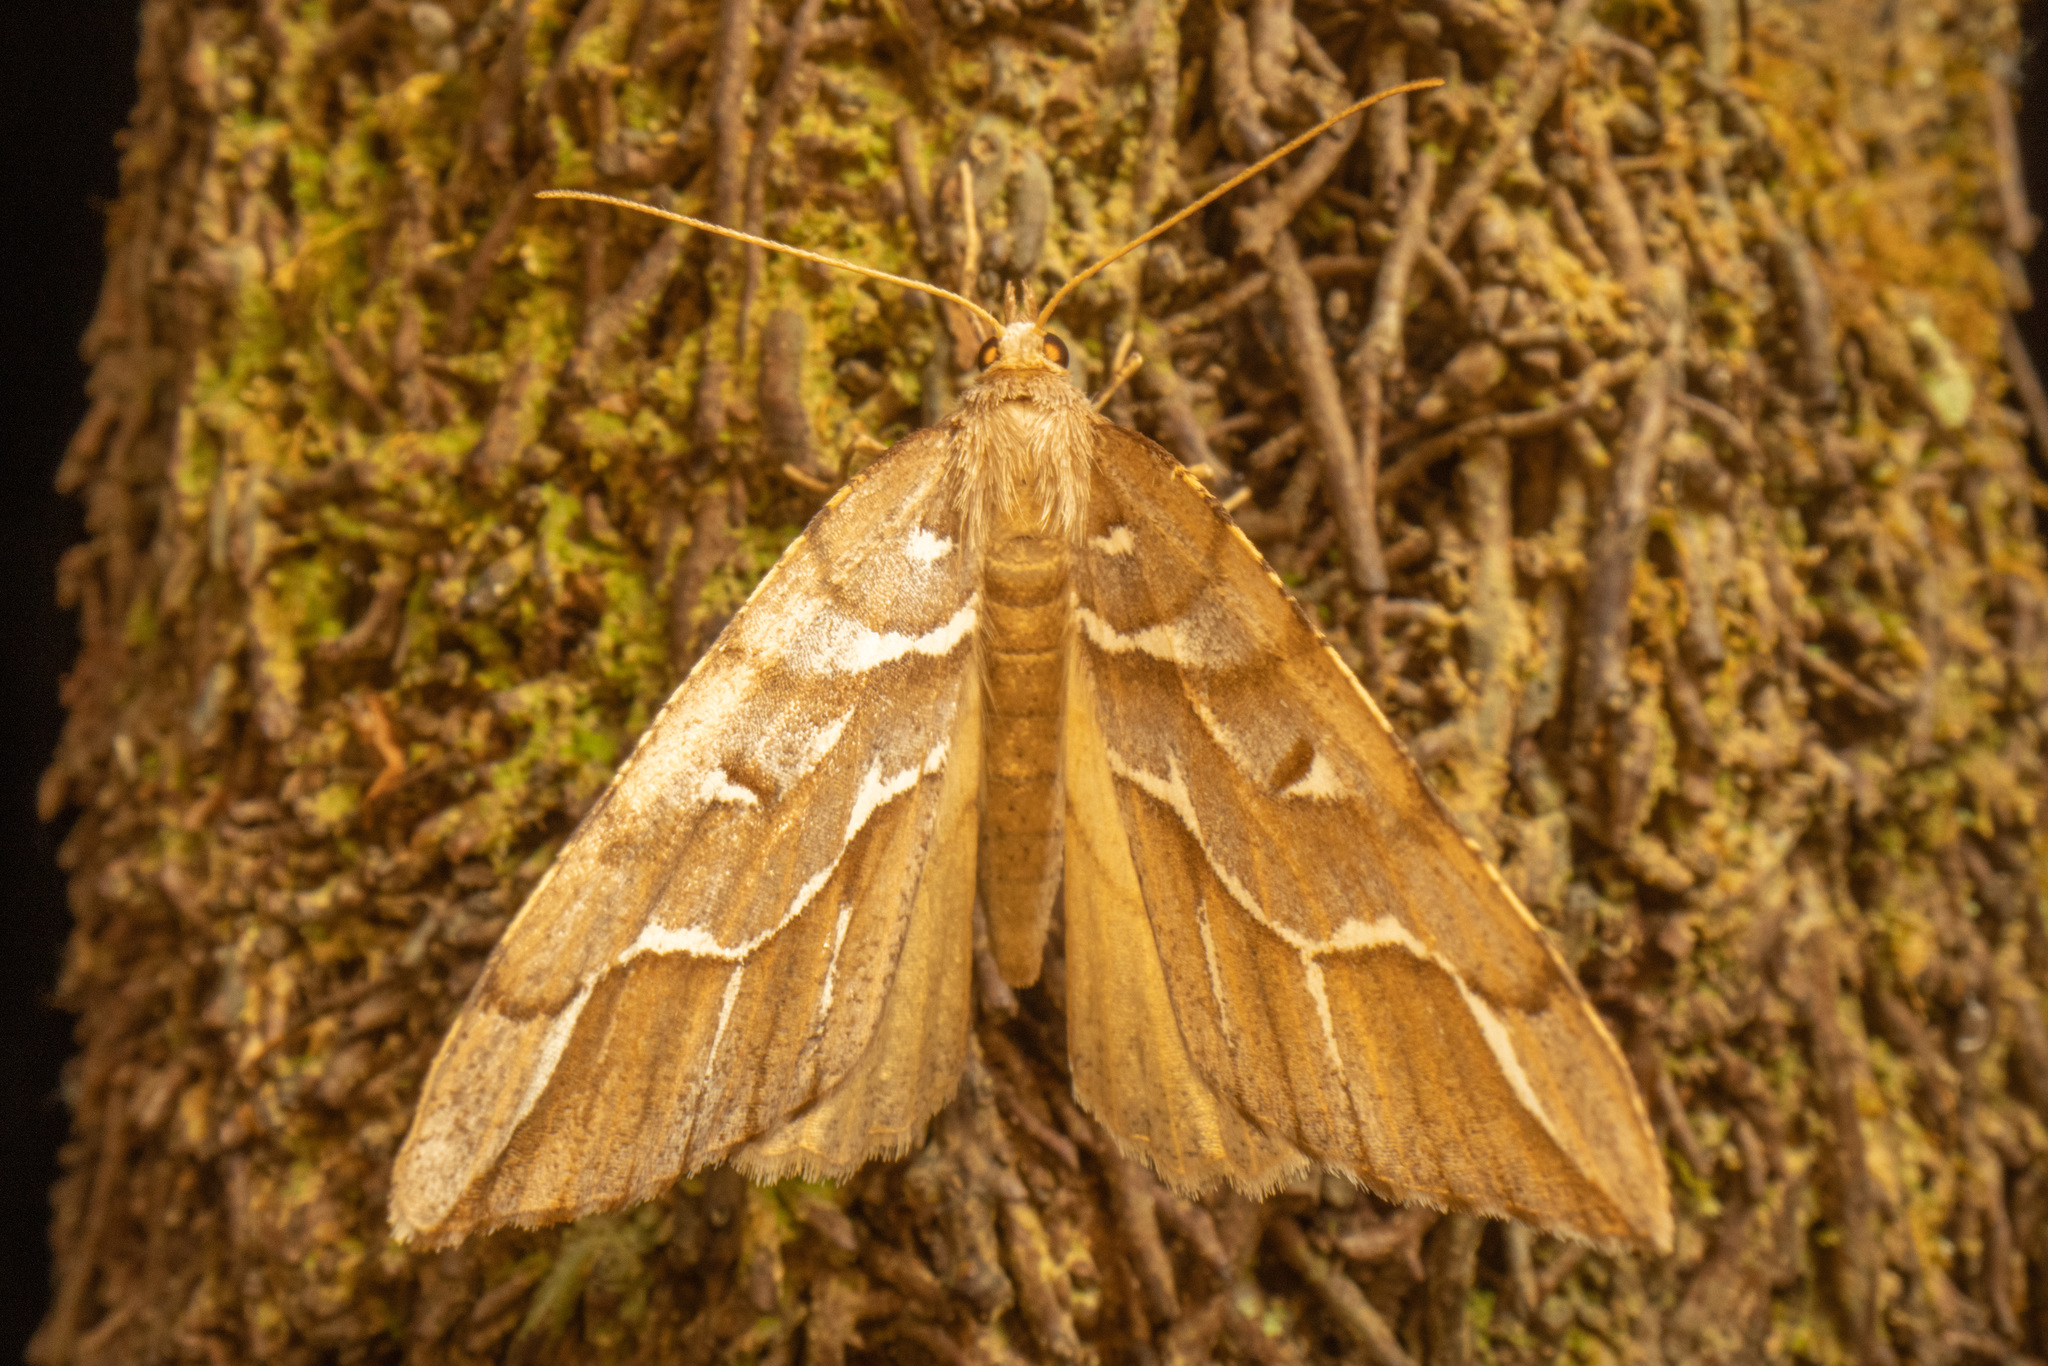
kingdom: Animalia
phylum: Arthropoda
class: Insecta
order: Lepidoptera
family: Geometridae
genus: Chalastra
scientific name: Chalastra aristarcha
